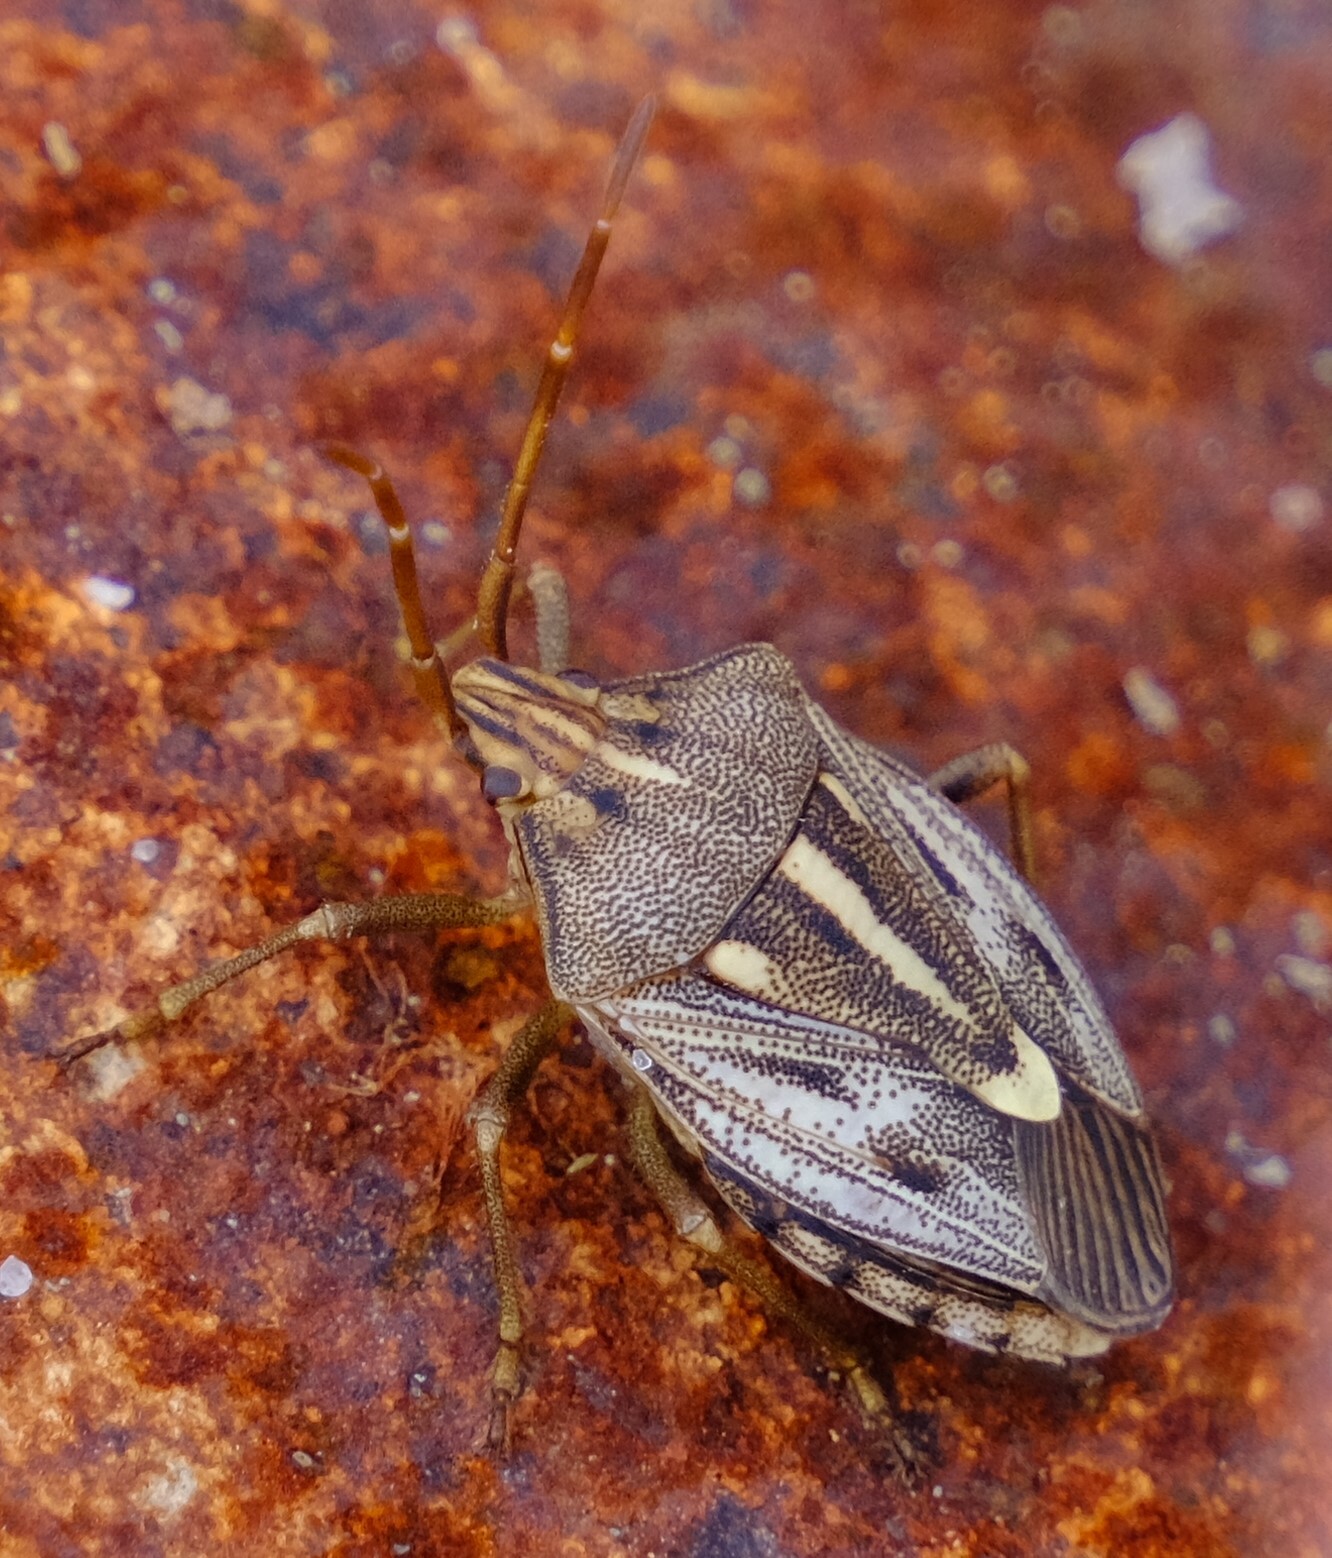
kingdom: Animalia
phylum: Arthropoda
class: Insecta
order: Hemiptera
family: Pentatomidae
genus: Dippilana
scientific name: Dippilana
